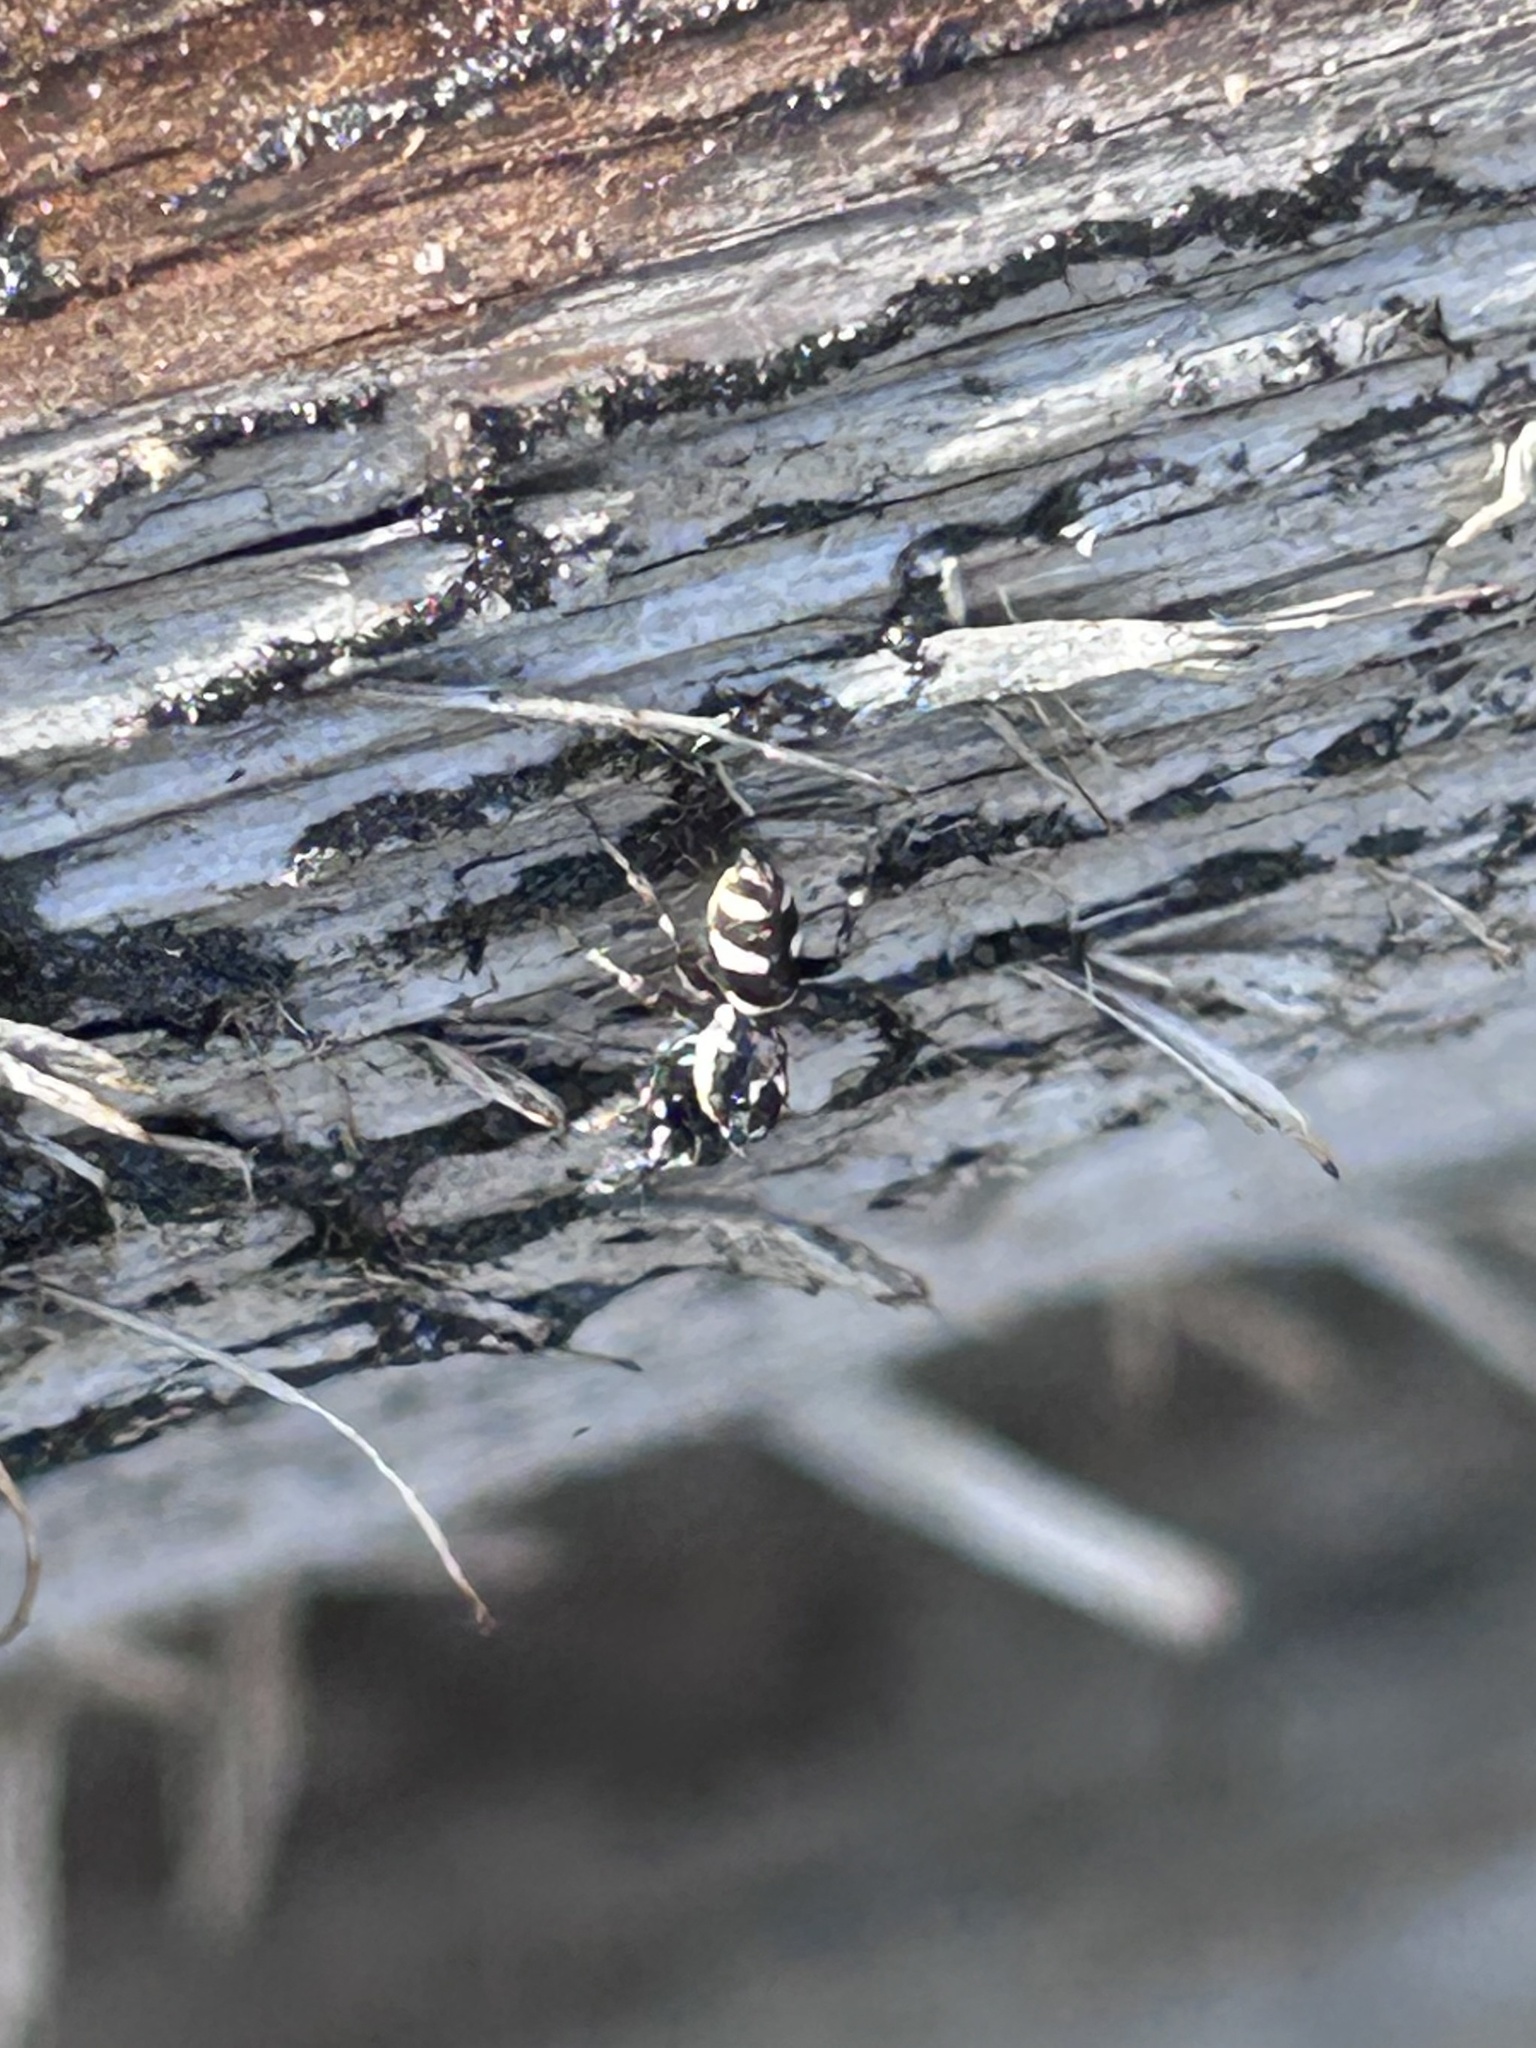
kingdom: Animalia
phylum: Arthropoda
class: Arachnida
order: Araneae
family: Salticidae
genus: Salticus
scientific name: Salticus scenicus
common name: Zebra jumper
